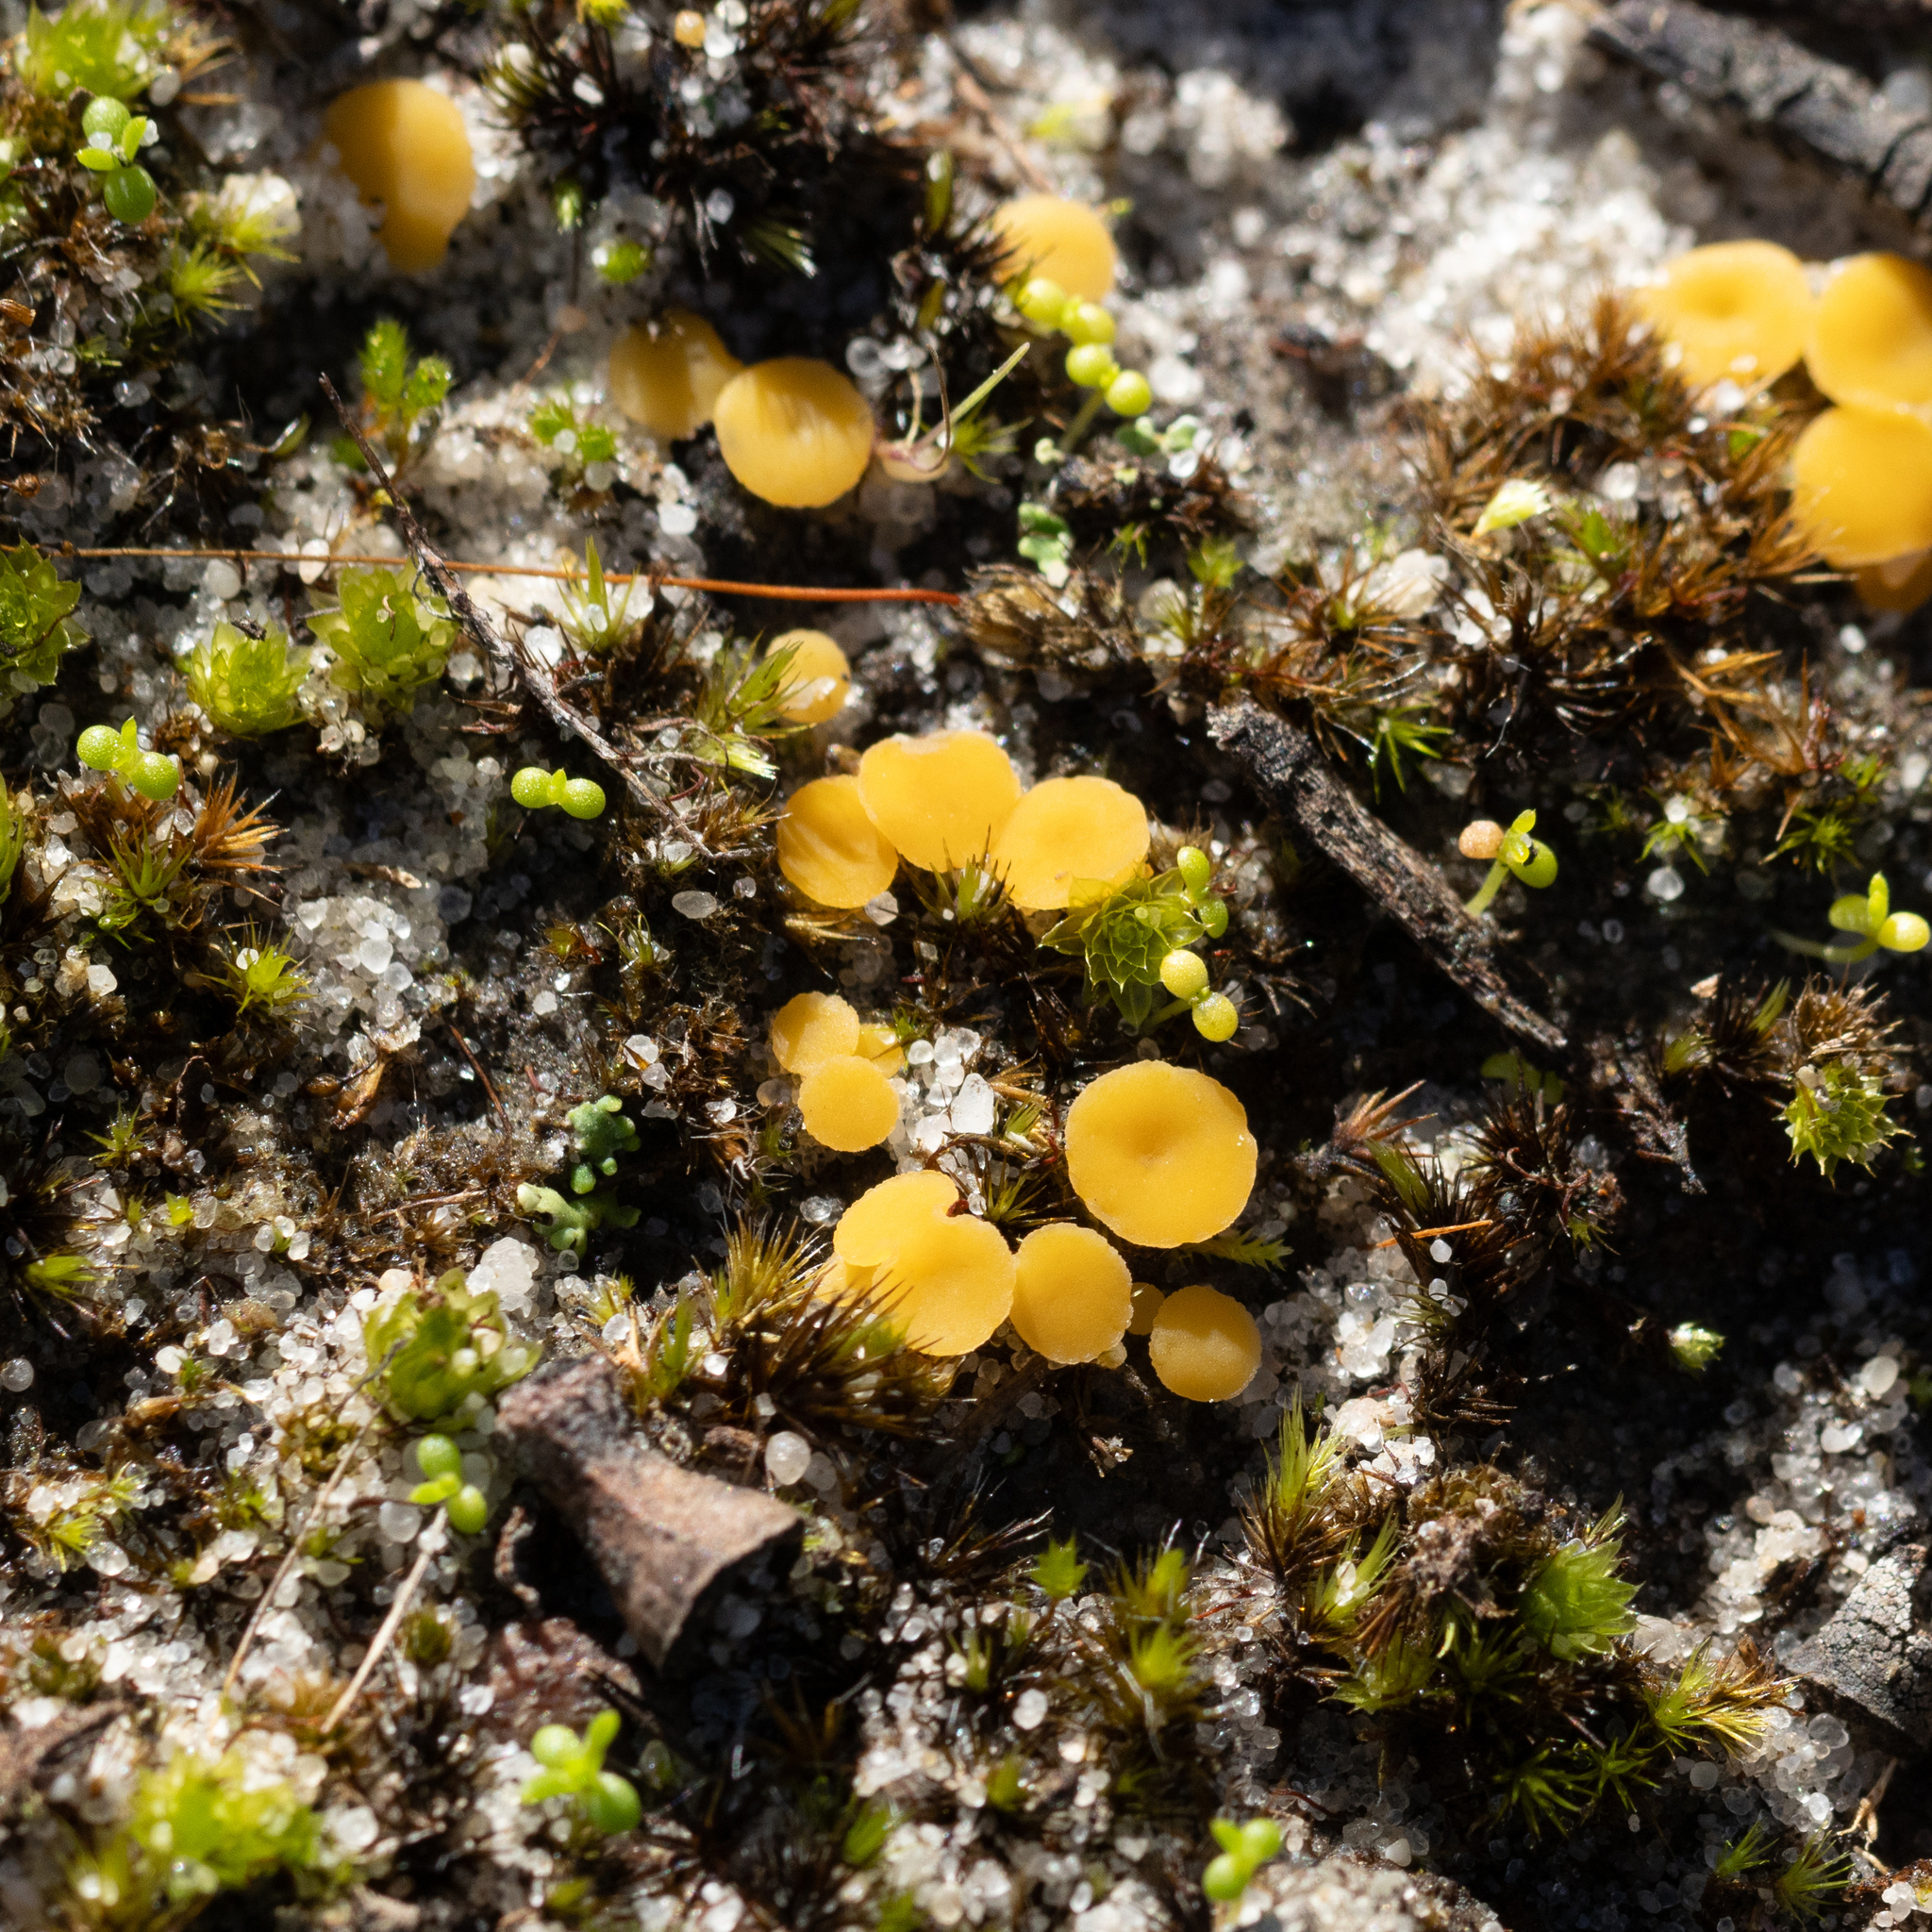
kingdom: Fungi
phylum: Ascomycota
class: Leotiomycetes
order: Helotiales
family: Helotiaceae
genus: Phaeohelotium
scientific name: Phaeohelotium baileyanum
